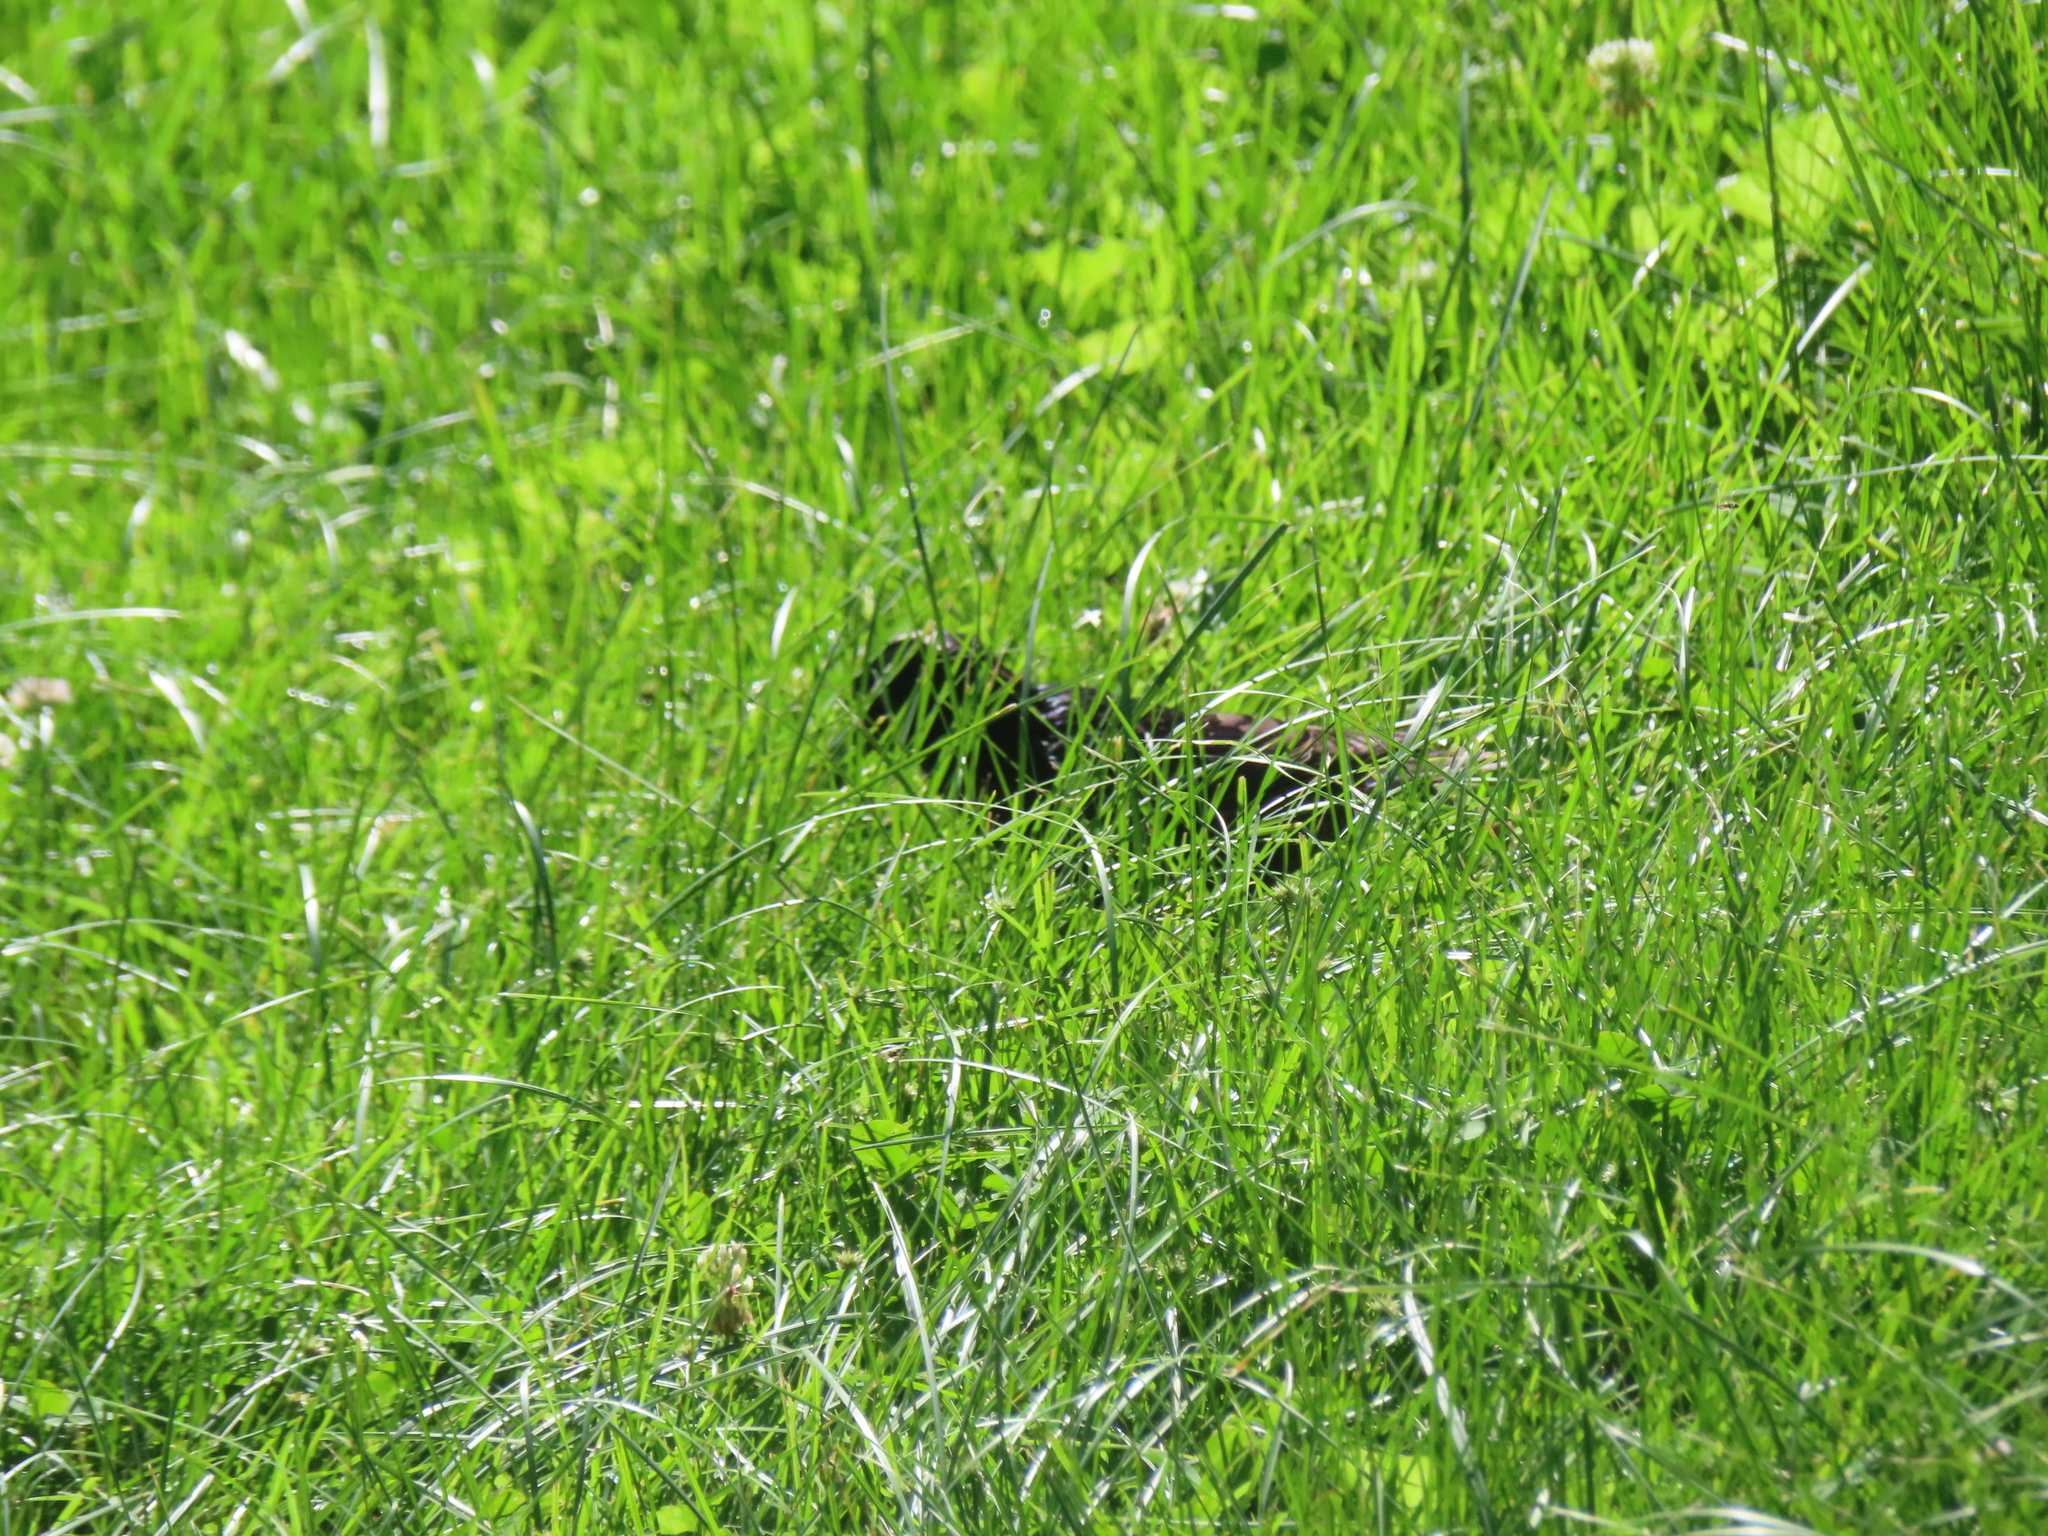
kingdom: Animalia
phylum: Chordata
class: Aves
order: Passeriformes
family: Sturnidae
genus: Sturnus
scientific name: Sturnus vulgaris
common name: Common starling
